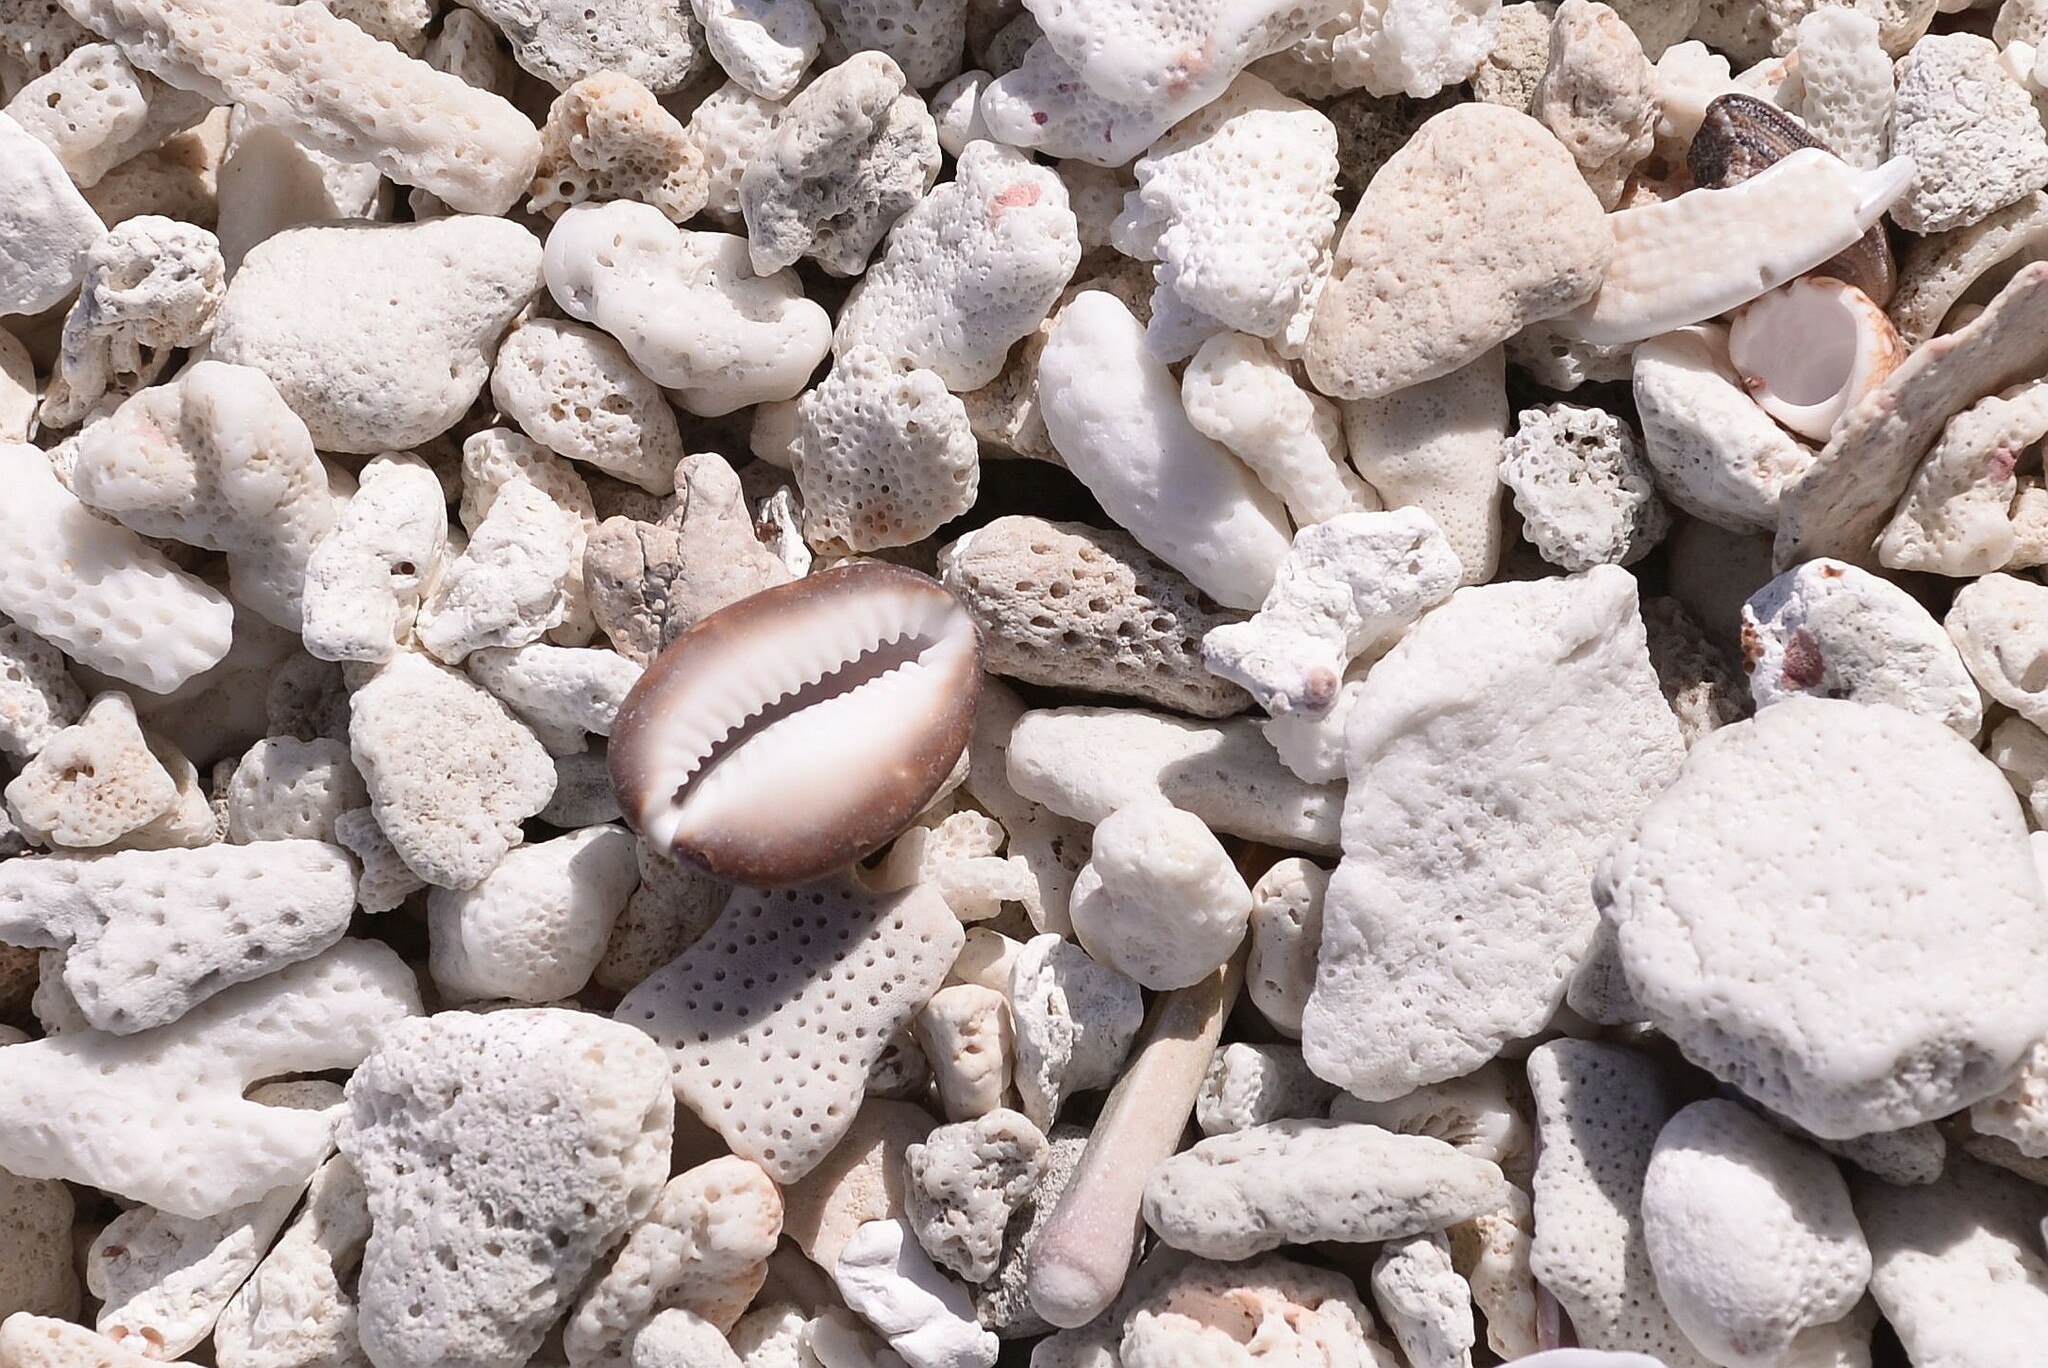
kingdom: Animalia
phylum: Mollusca
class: Gastropoda
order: Littorinimorpha
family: Cypraeidae
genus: Monetaria
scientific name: Monetaria caputserpentis
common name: Serpent's head cowrie
